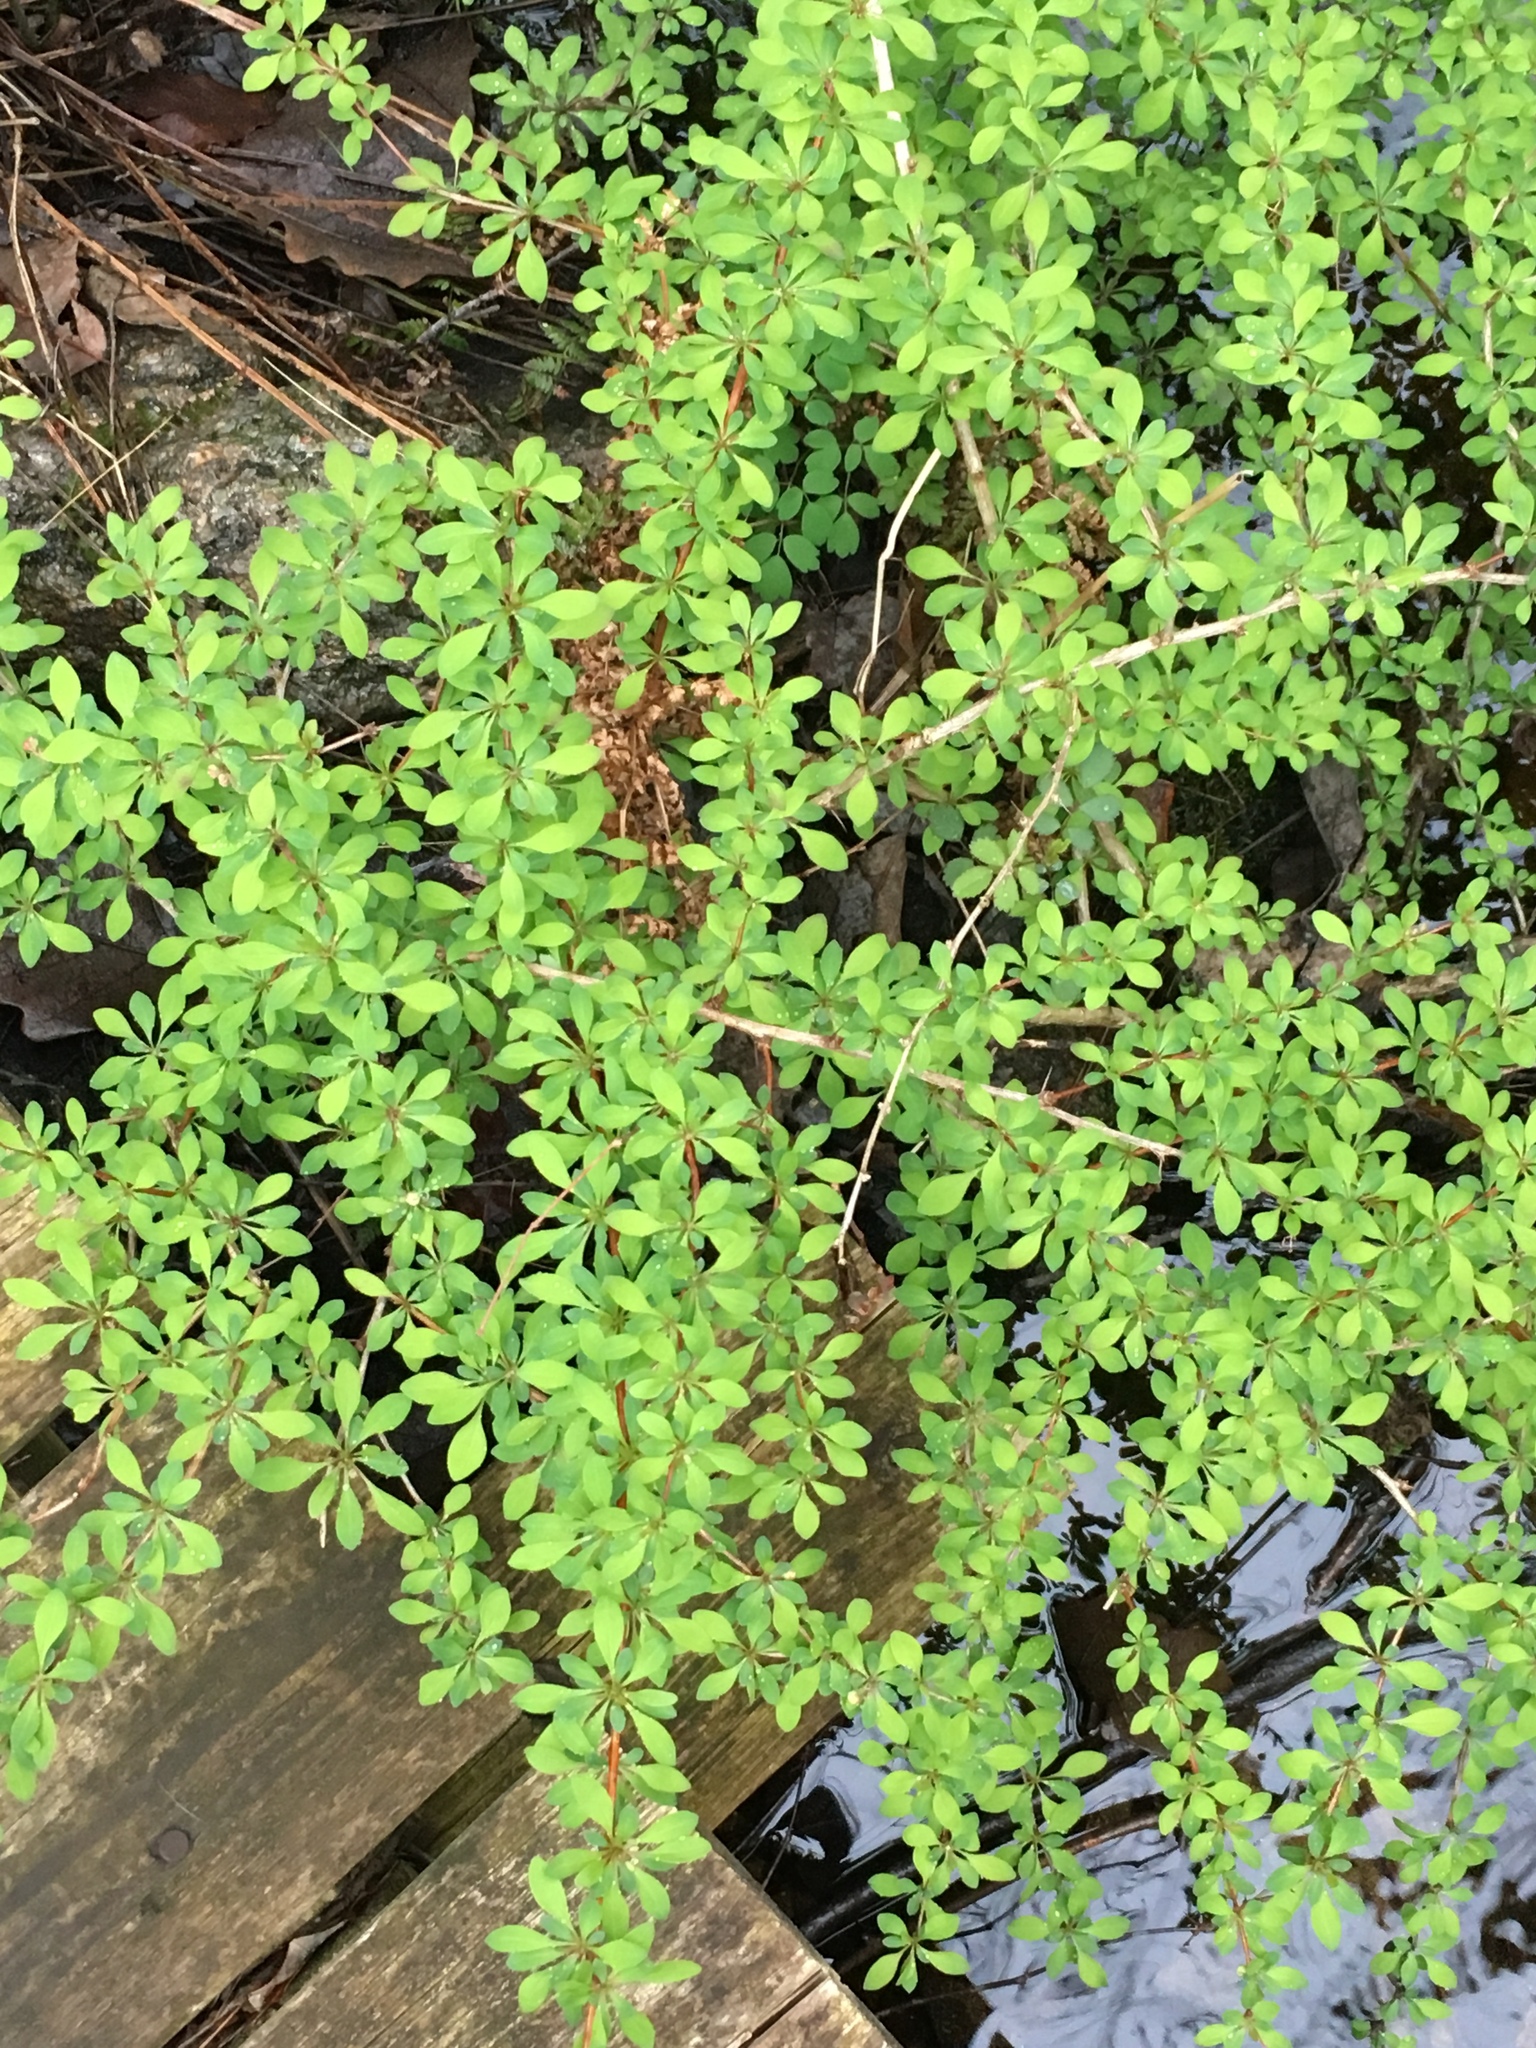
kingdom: Plantae
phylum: Tracheophyta
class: Magnoliopsida
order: Ranunculales
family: Berberidaceae
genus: Berberis
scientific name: Berberis thunbergii
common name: Japanese barberry
